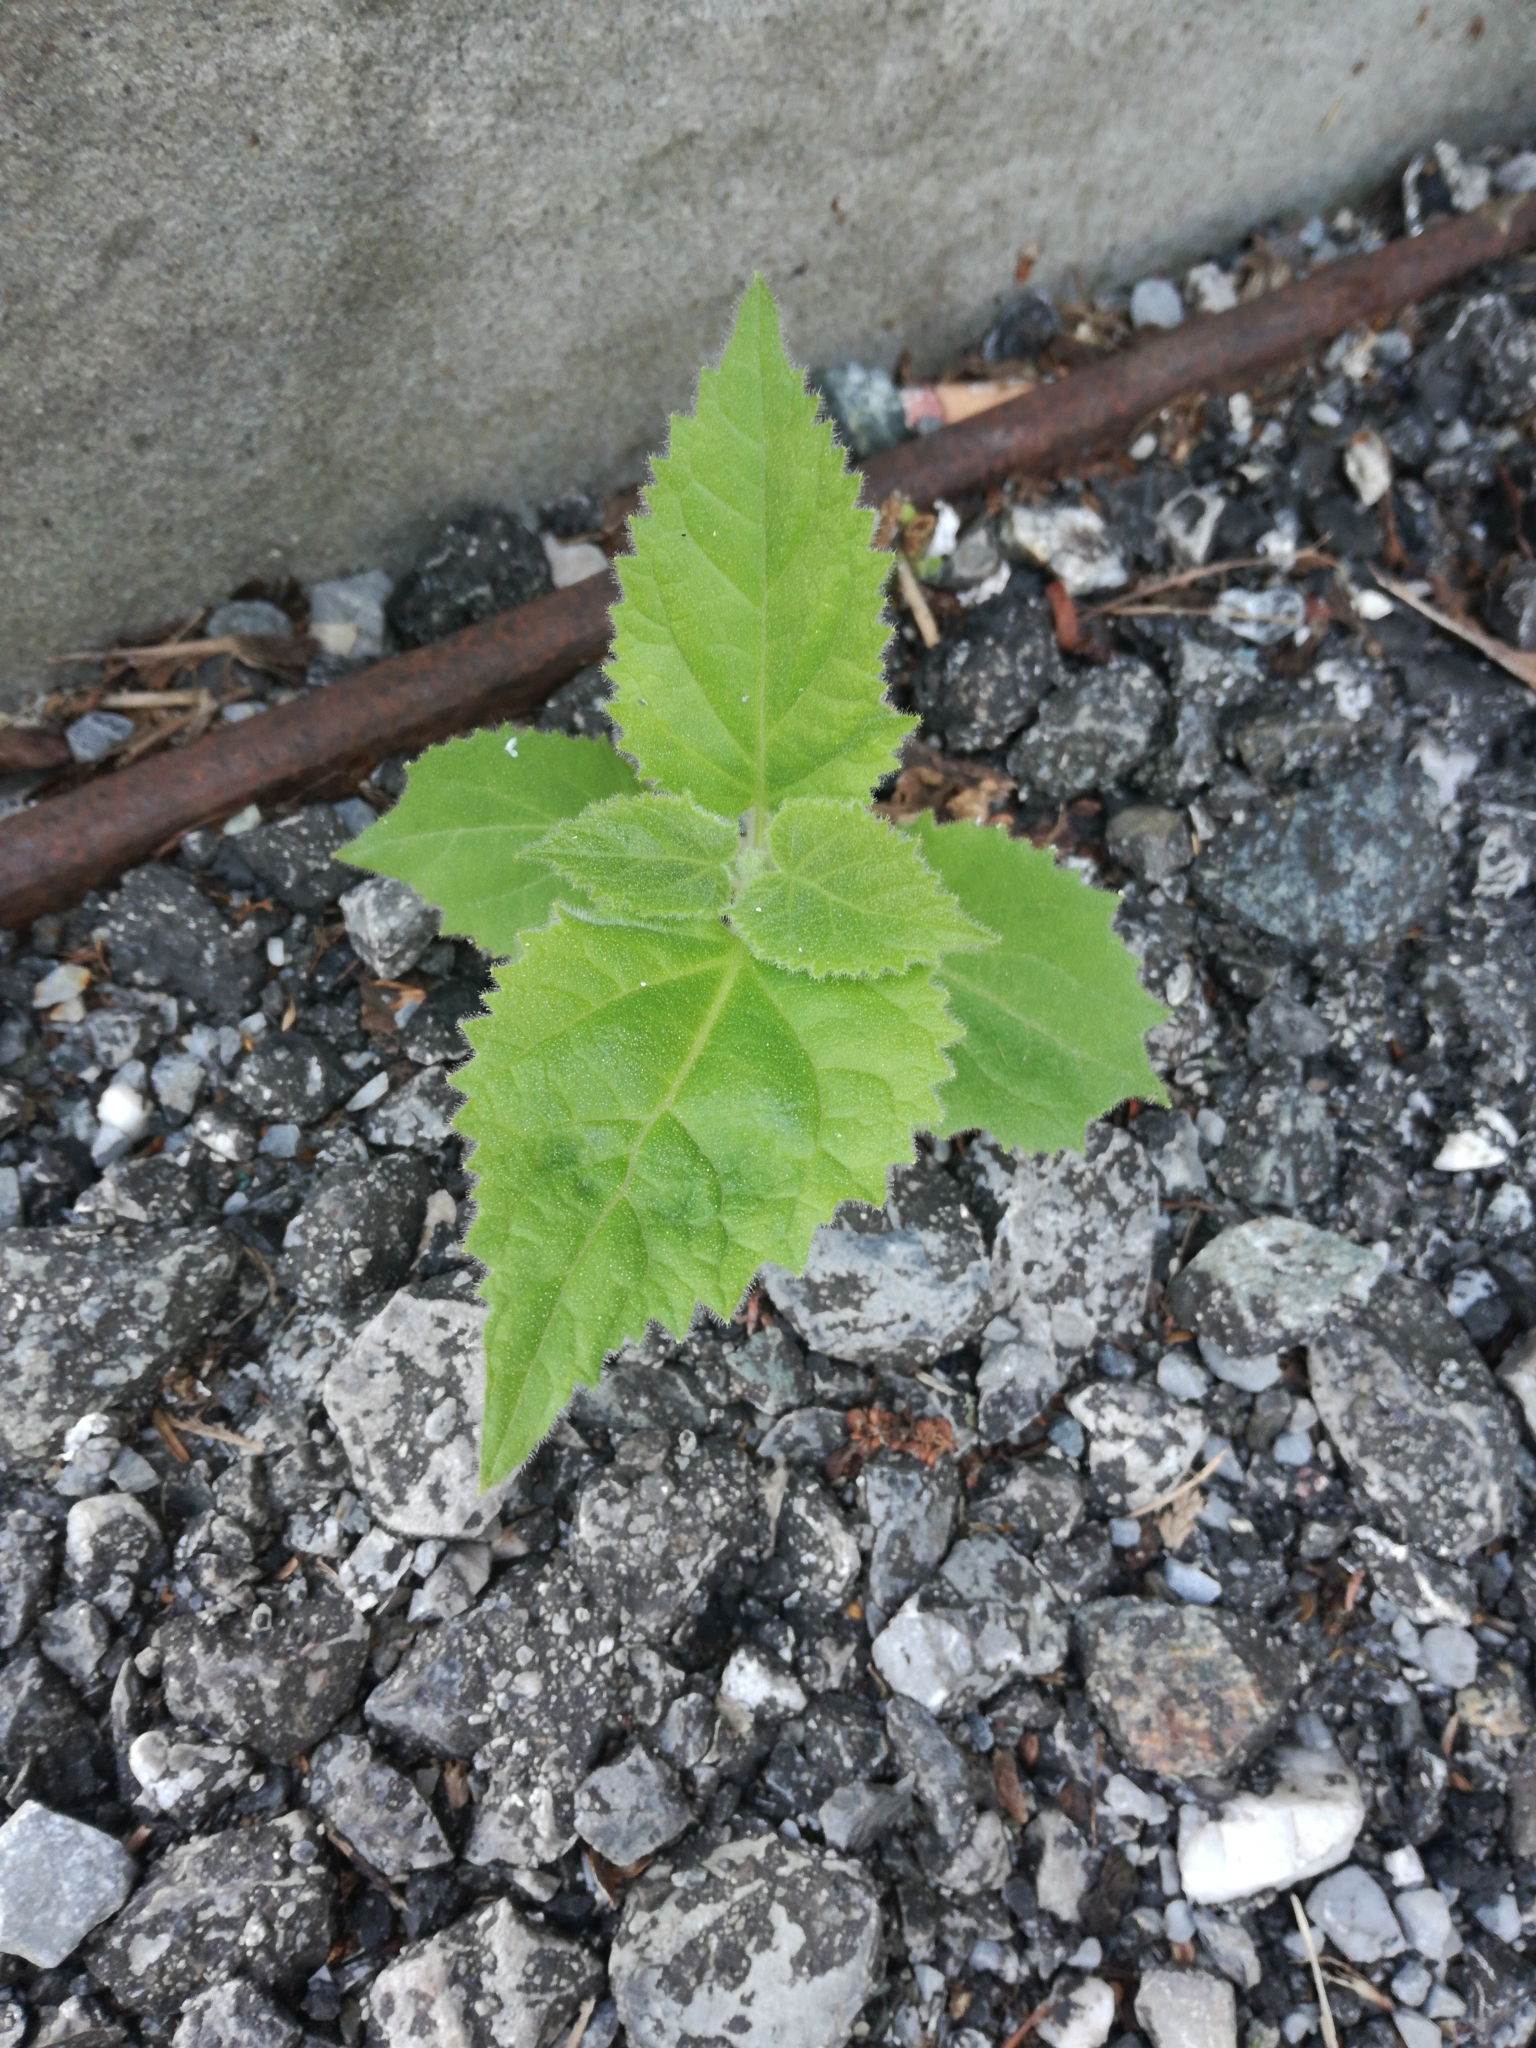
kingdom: Plantae
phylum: Tracheophyta
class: Magnoliopsida
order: Lamiales
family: Paulowniaceae
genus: Paulownia
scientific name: Paulownia tomentosa
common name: Foxglove-tree
